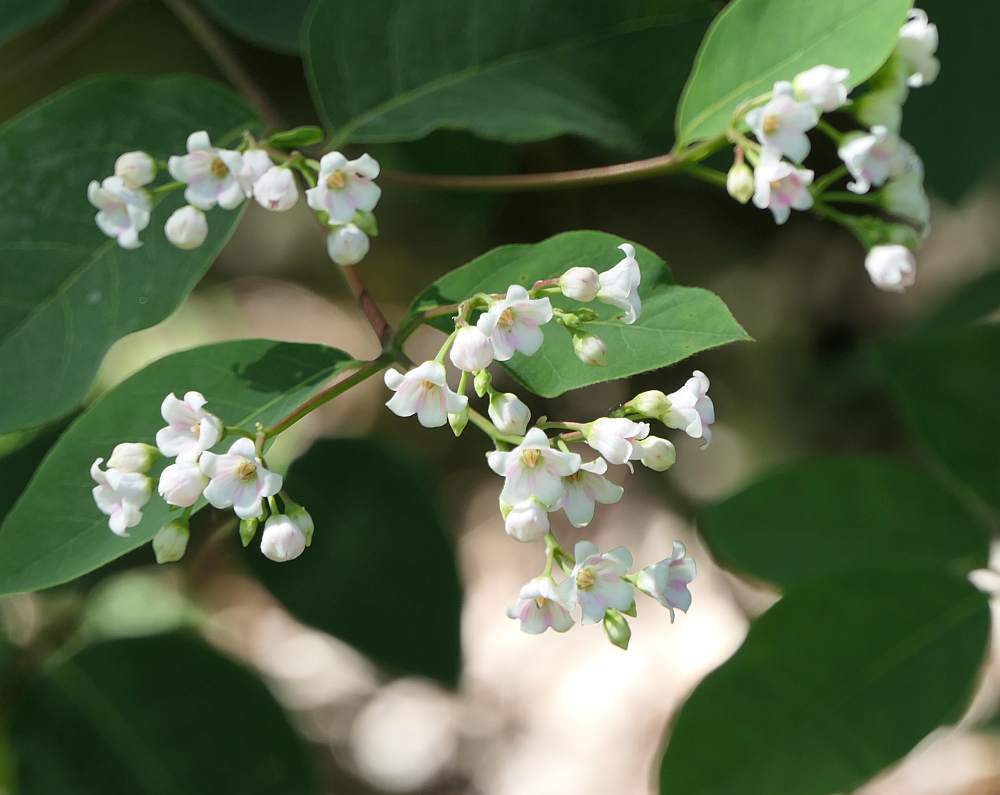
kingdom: Plantae
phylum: Tracheophyta
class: Magnoliopsida
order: Gentianales
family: Apocynaceae
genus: Apocynum
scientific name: Apocynum androsaemifolium
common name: Spreading dogbane
